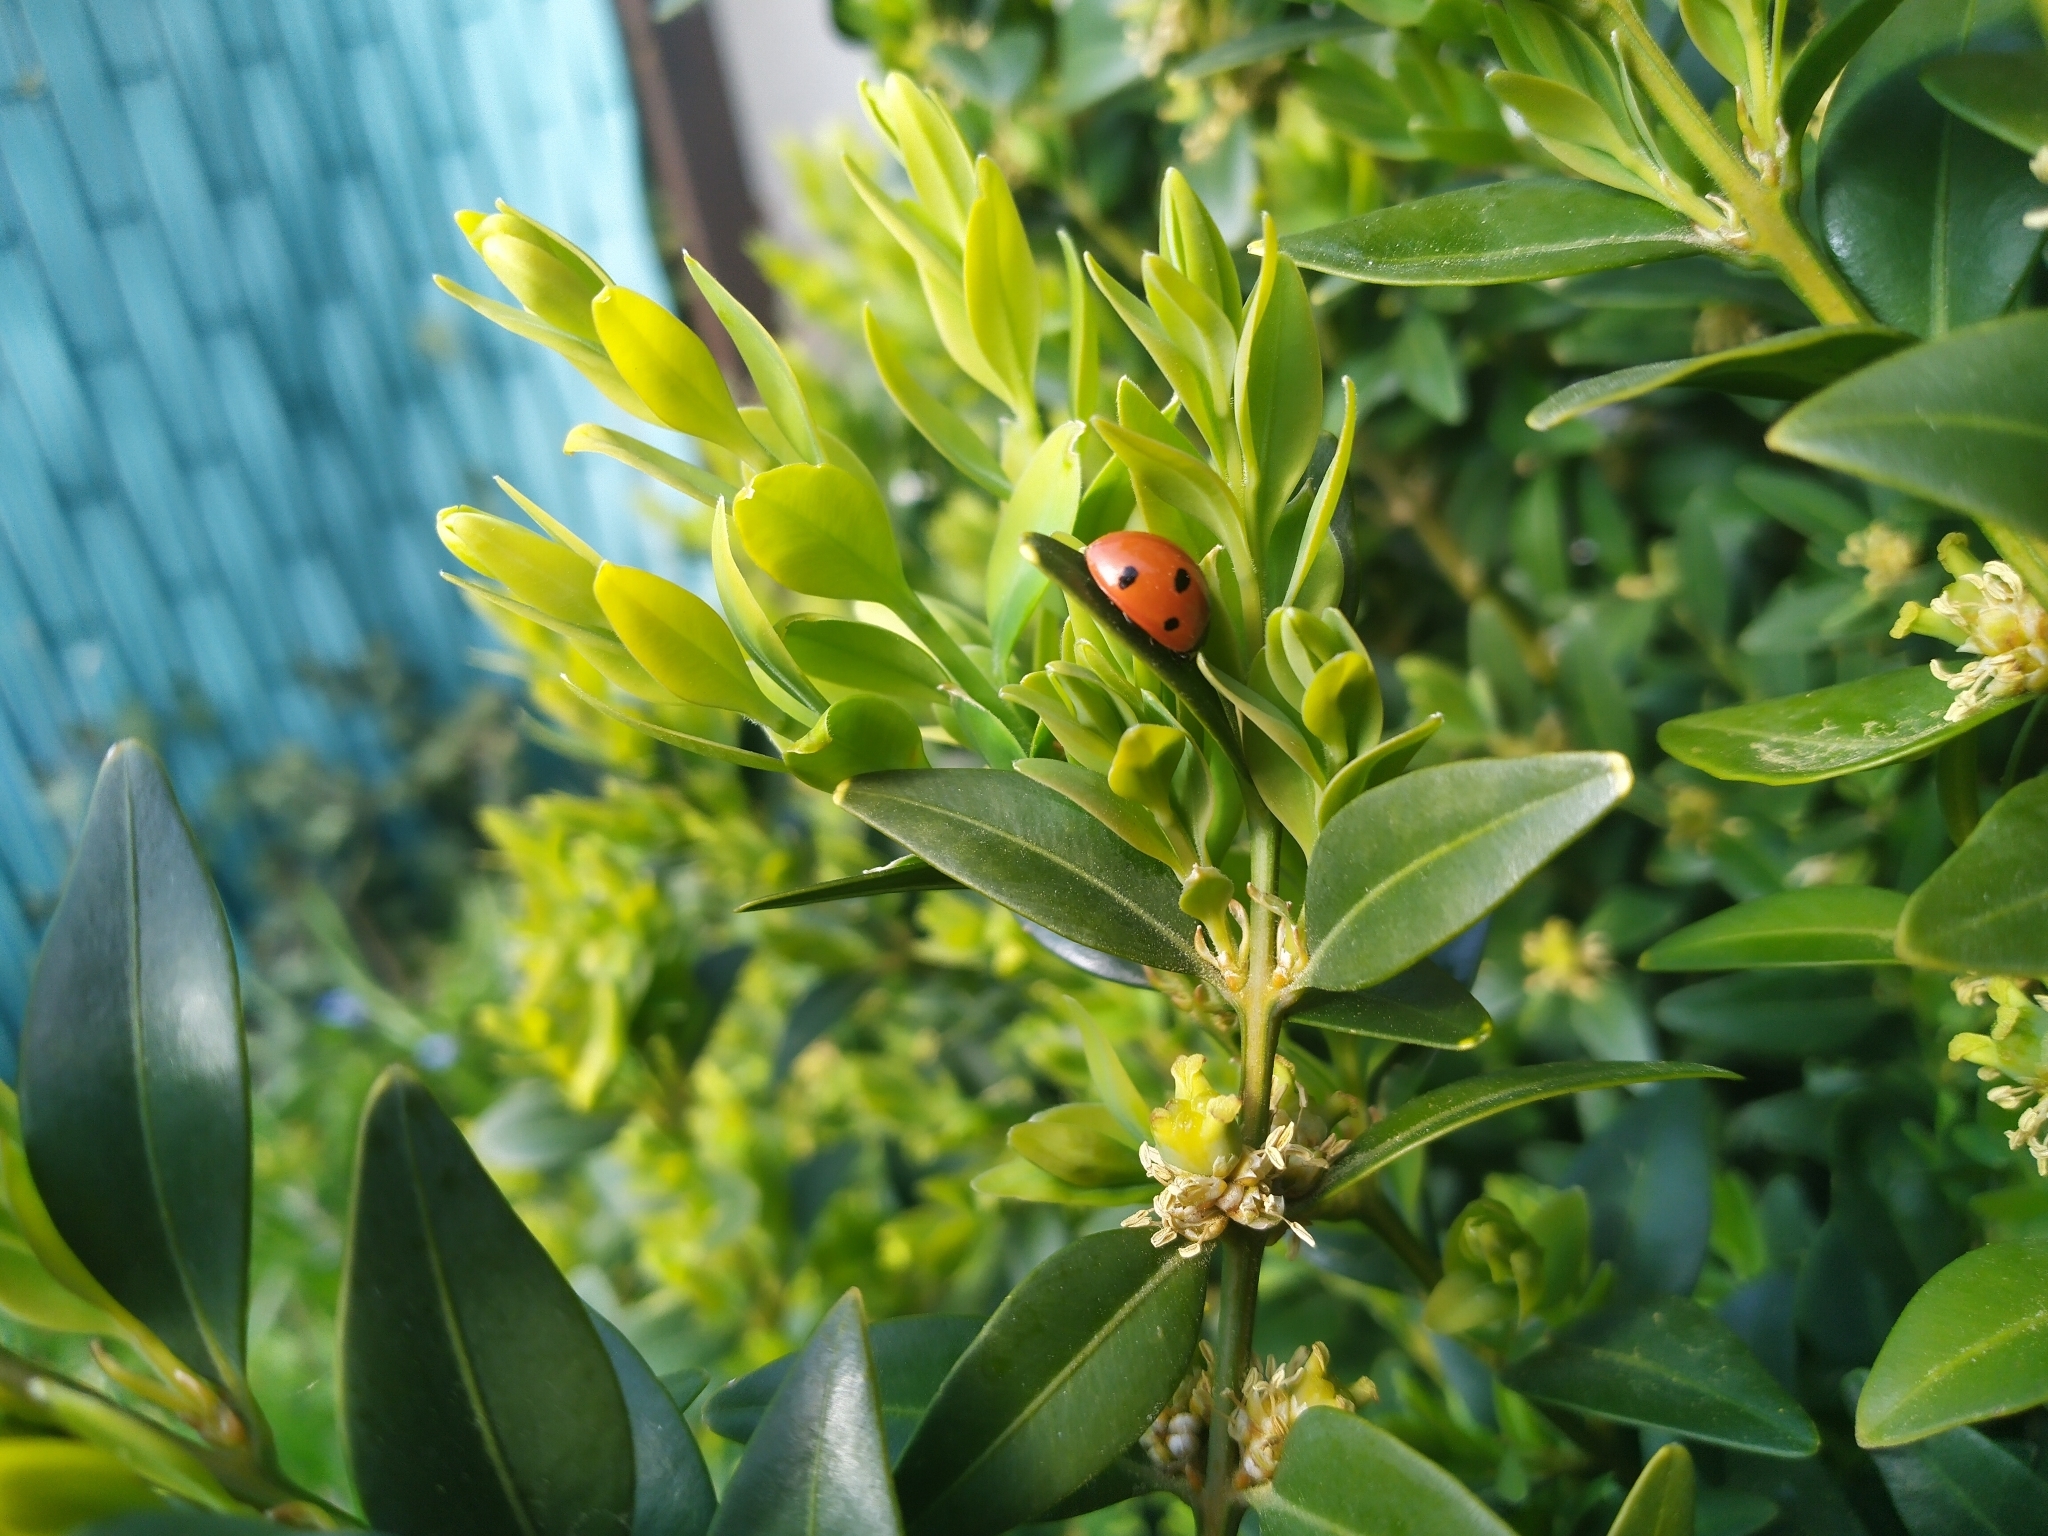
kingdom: Animalia
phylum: Arthropoda
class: Insecta
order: Coleoptera
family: Coccinellidae
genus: Coccinella
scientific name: Coccinella septempunctata
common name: Sevenspotted lady beetle
